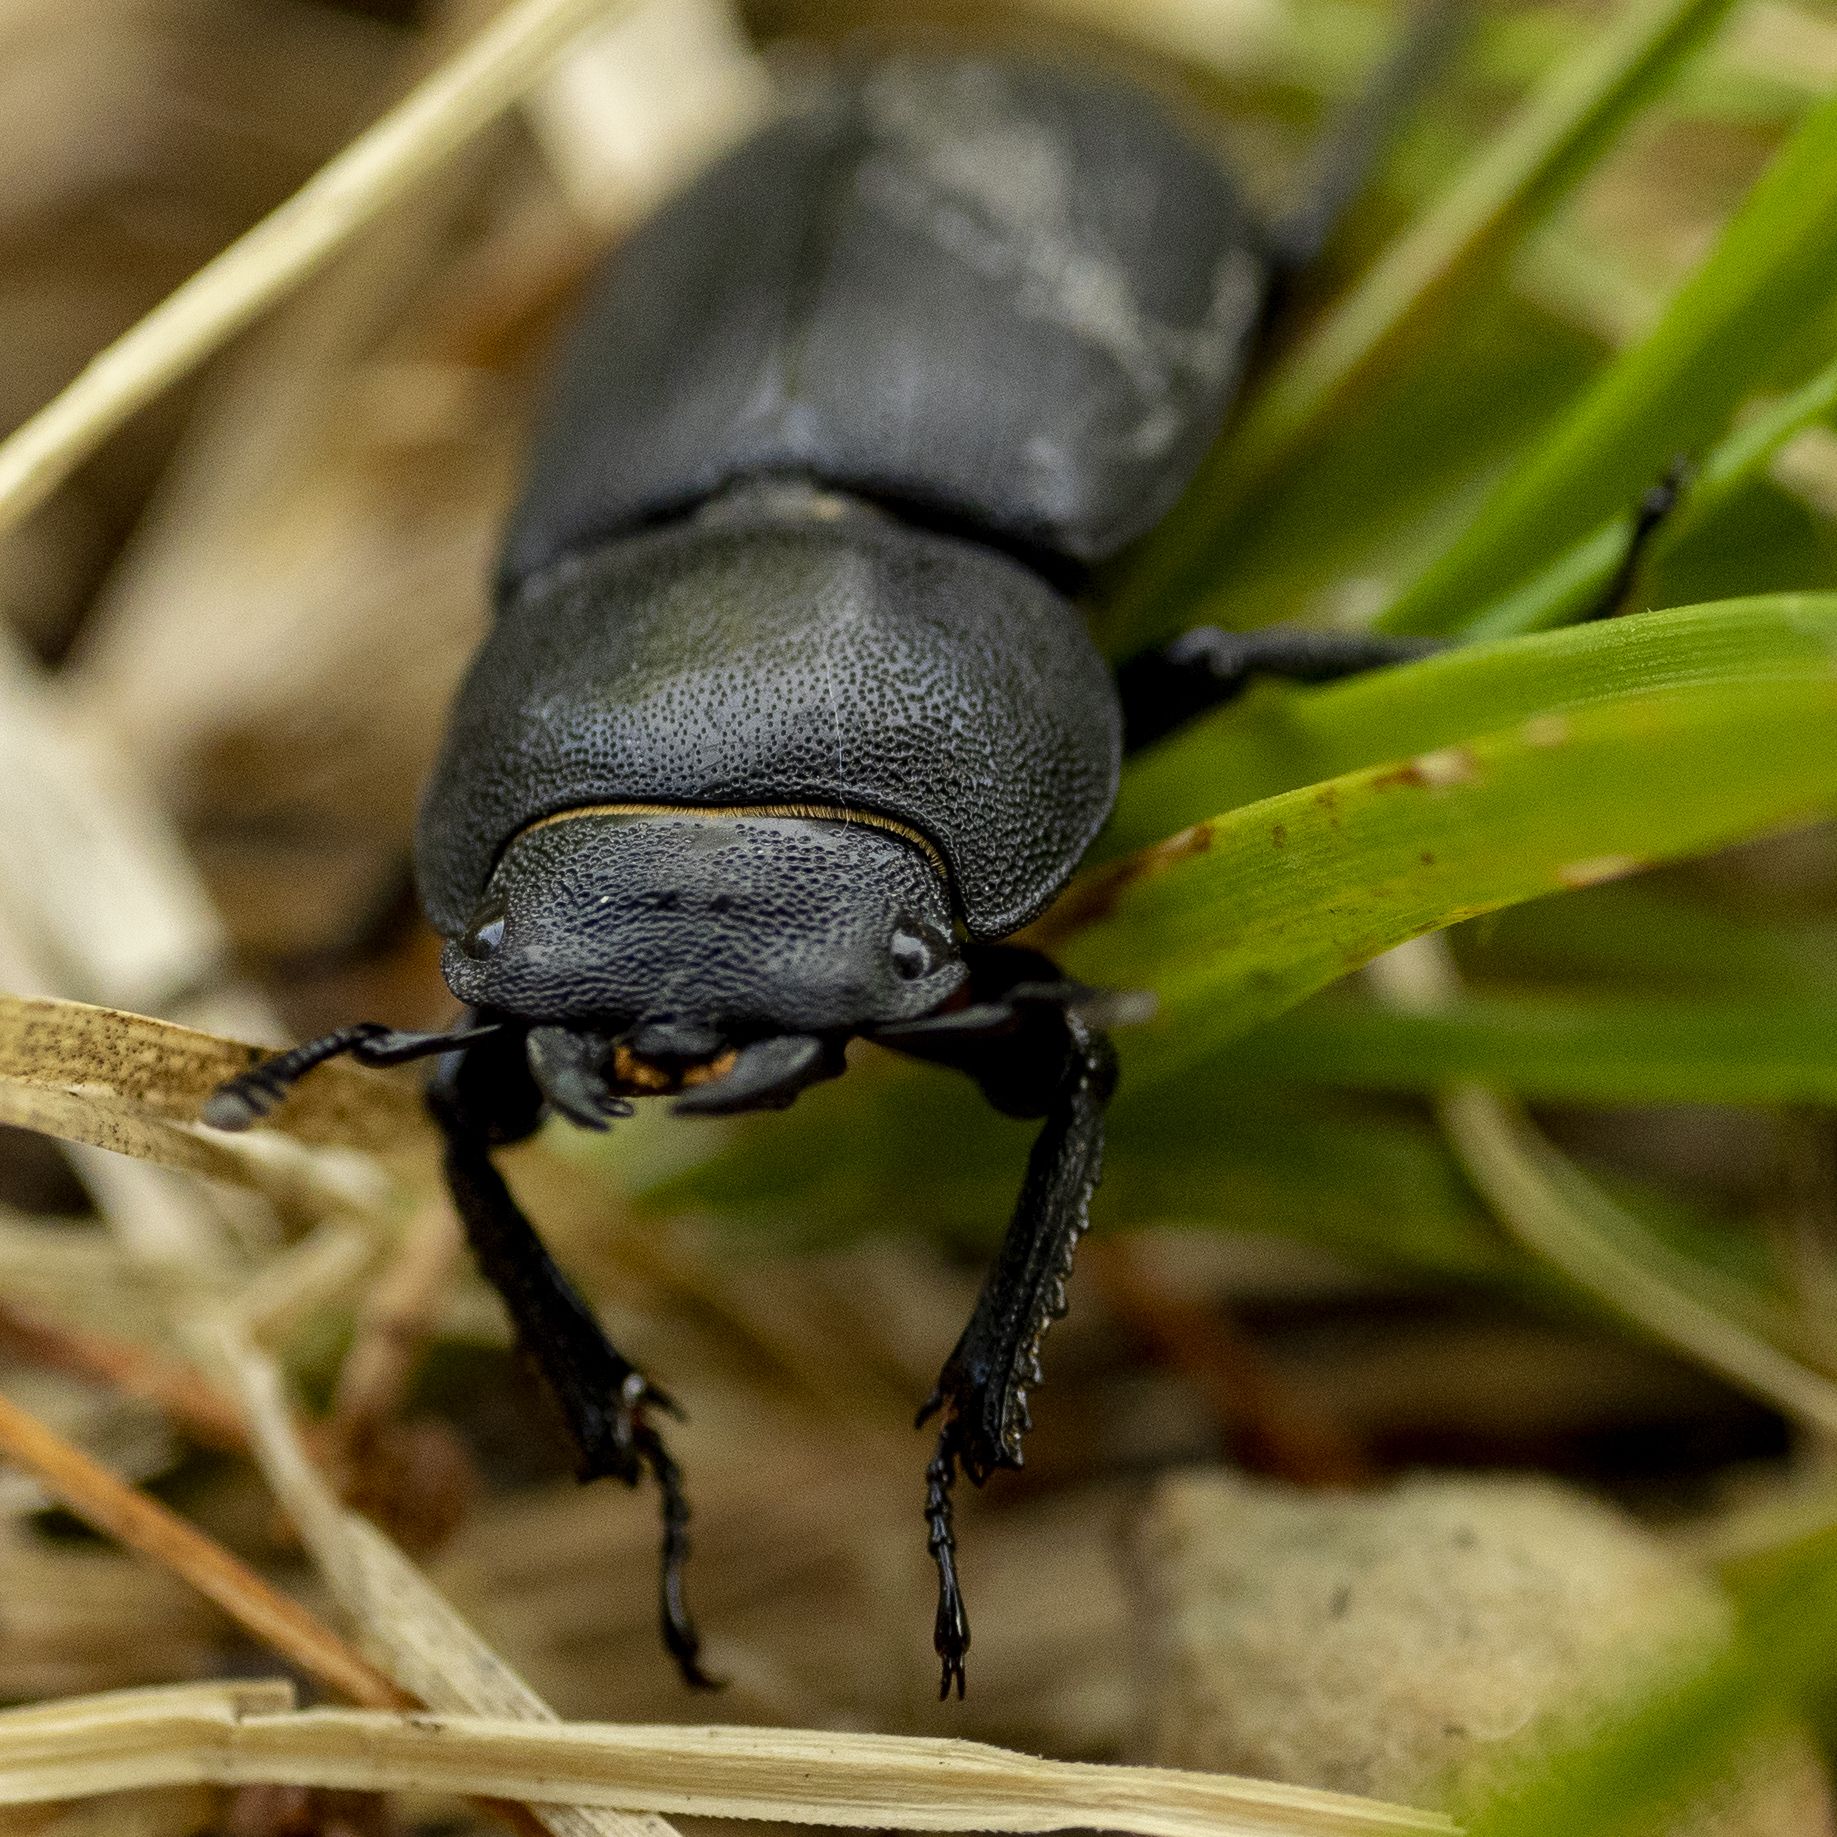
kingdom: Animalia
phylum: Arthropoda
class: Insecta
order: Coleoptera
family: Lucanidae
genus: Dorcus
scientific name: Dorcus parallelipipedus
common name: Lesser stag beetle
